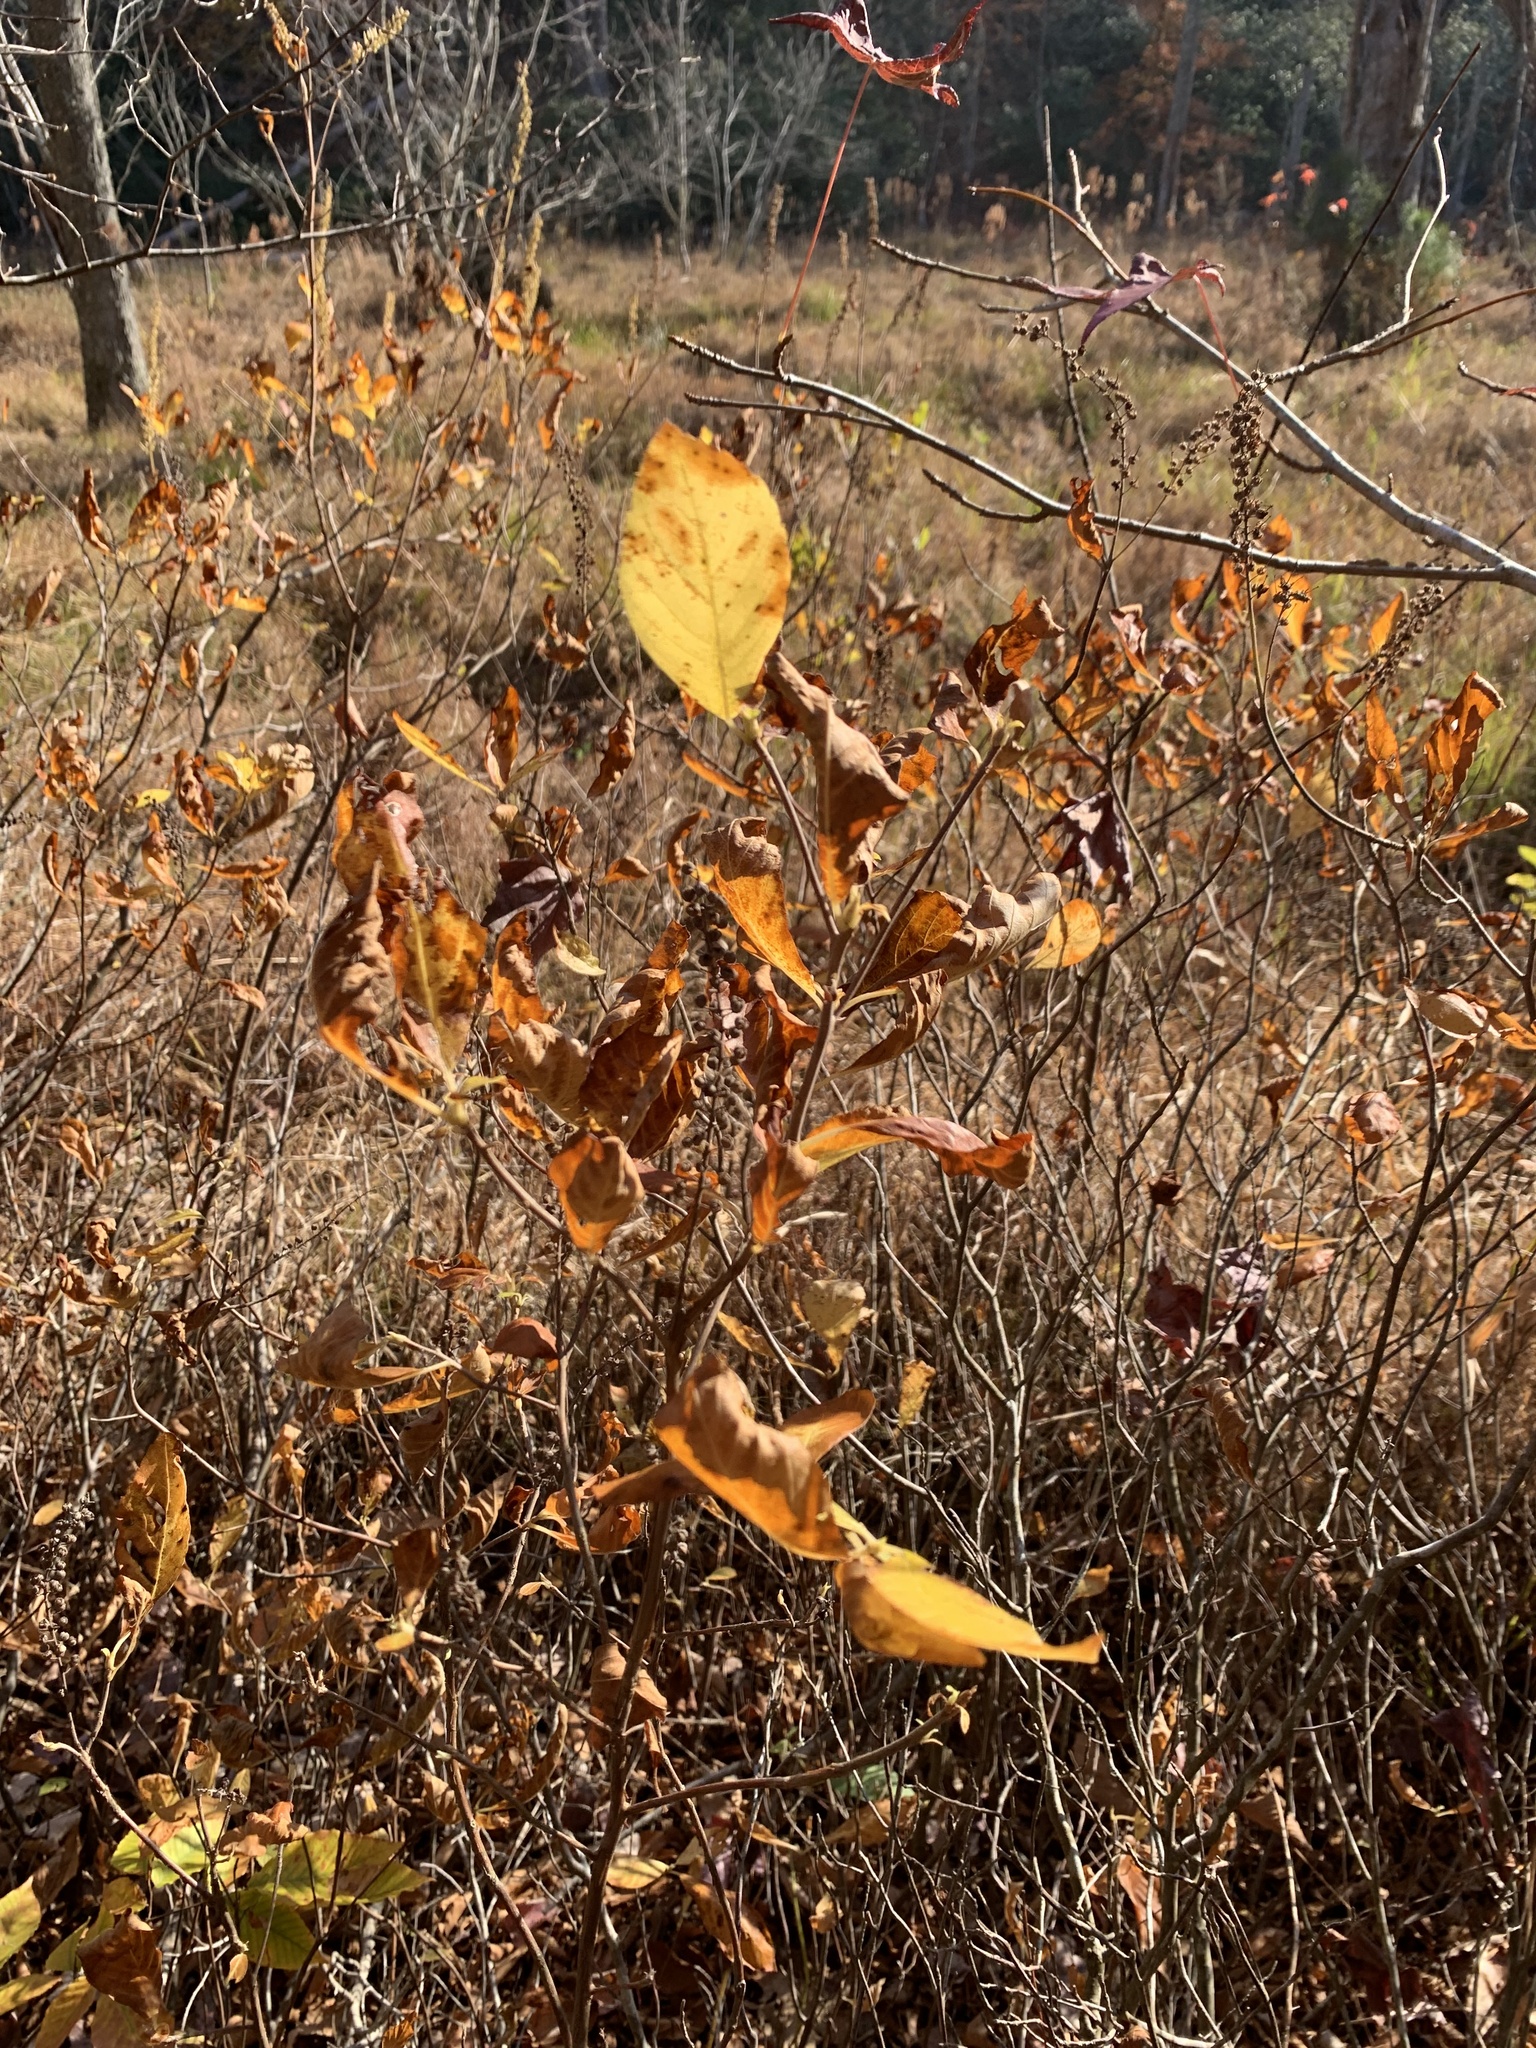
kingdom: Plantae
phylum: Tracheophyta
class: Magnoliopsida
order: Ericales
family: Clethraceae
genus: Clethra
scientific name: Clethra alnifolia
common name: Sweet pepperbush
